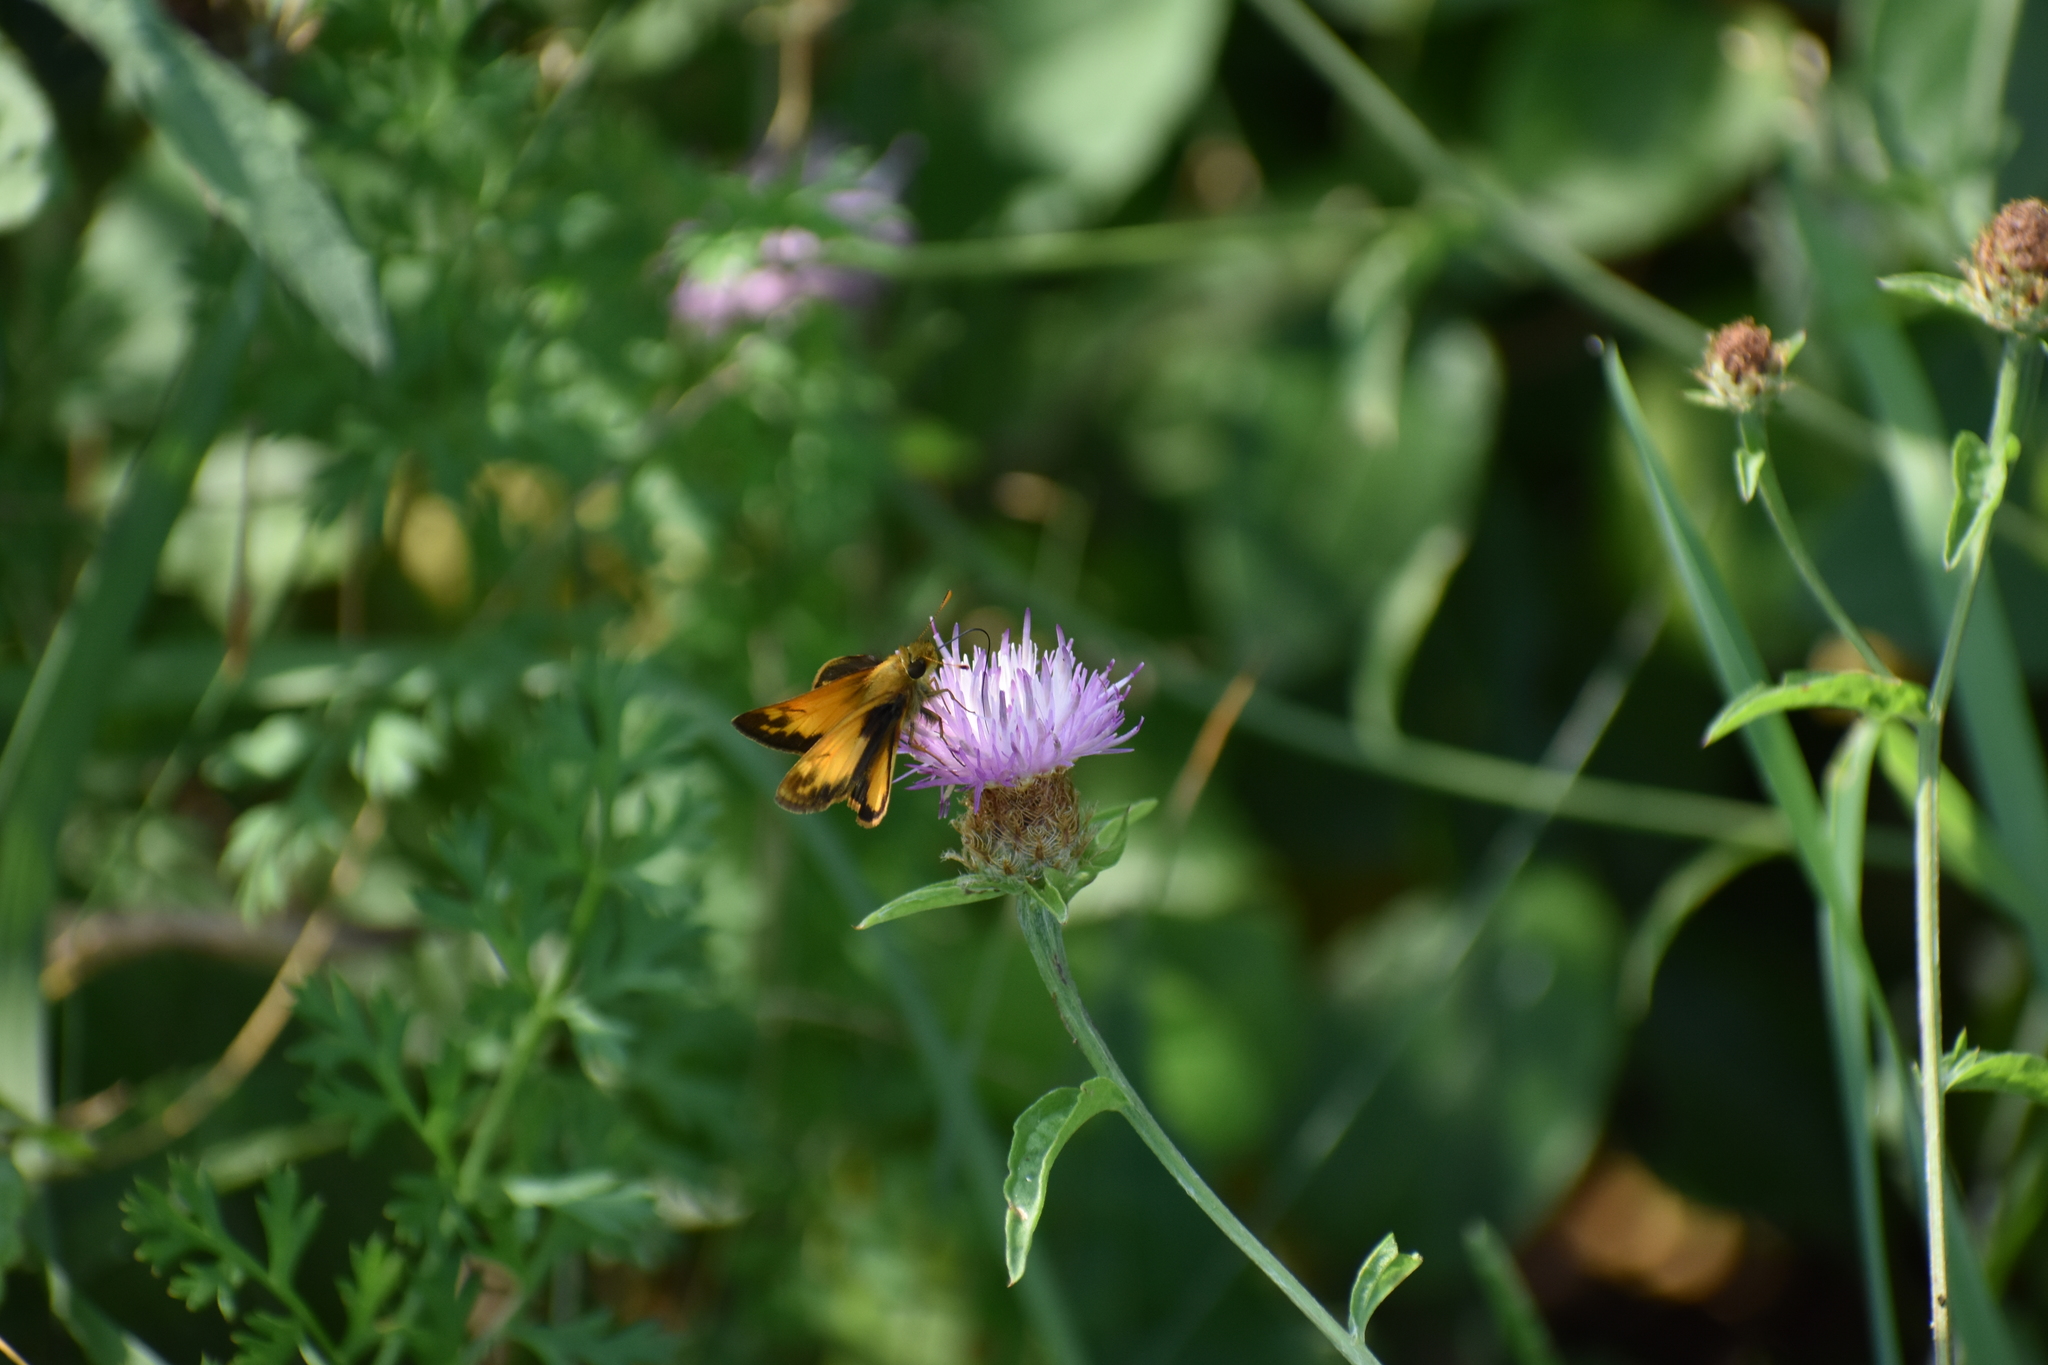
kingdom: Animalia
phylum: Arthropoda
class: Insecta
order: Lepidoptera
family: Hesperiidae
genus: Lon
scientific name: Lon zabulon
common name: Zabulon skipper
